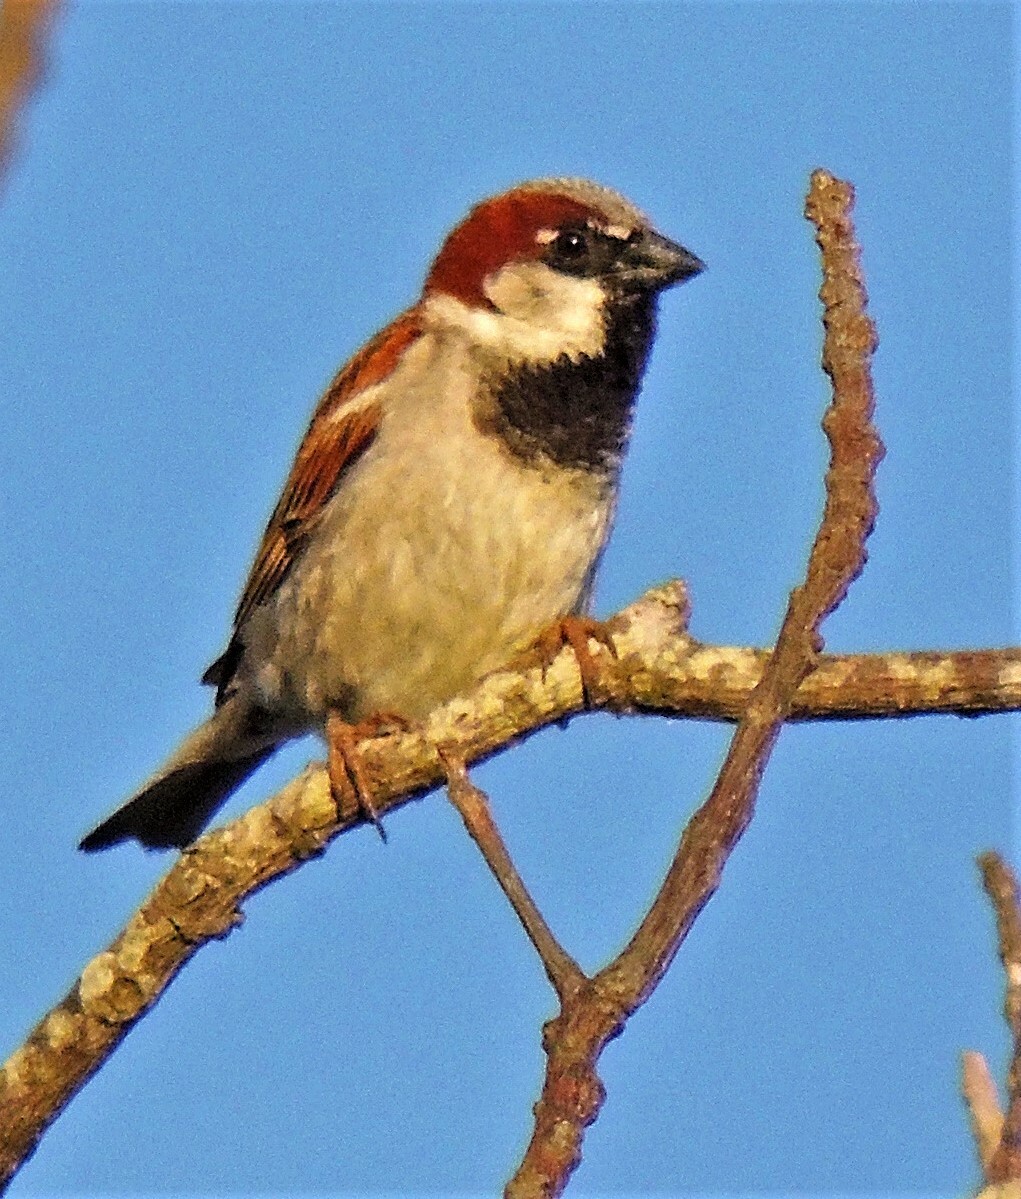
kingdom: Animalia
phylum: Chordata
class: Aves
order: Passeriformes
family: Passeridae
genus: Passer
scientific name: Passer domesticus
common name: House sparrow
